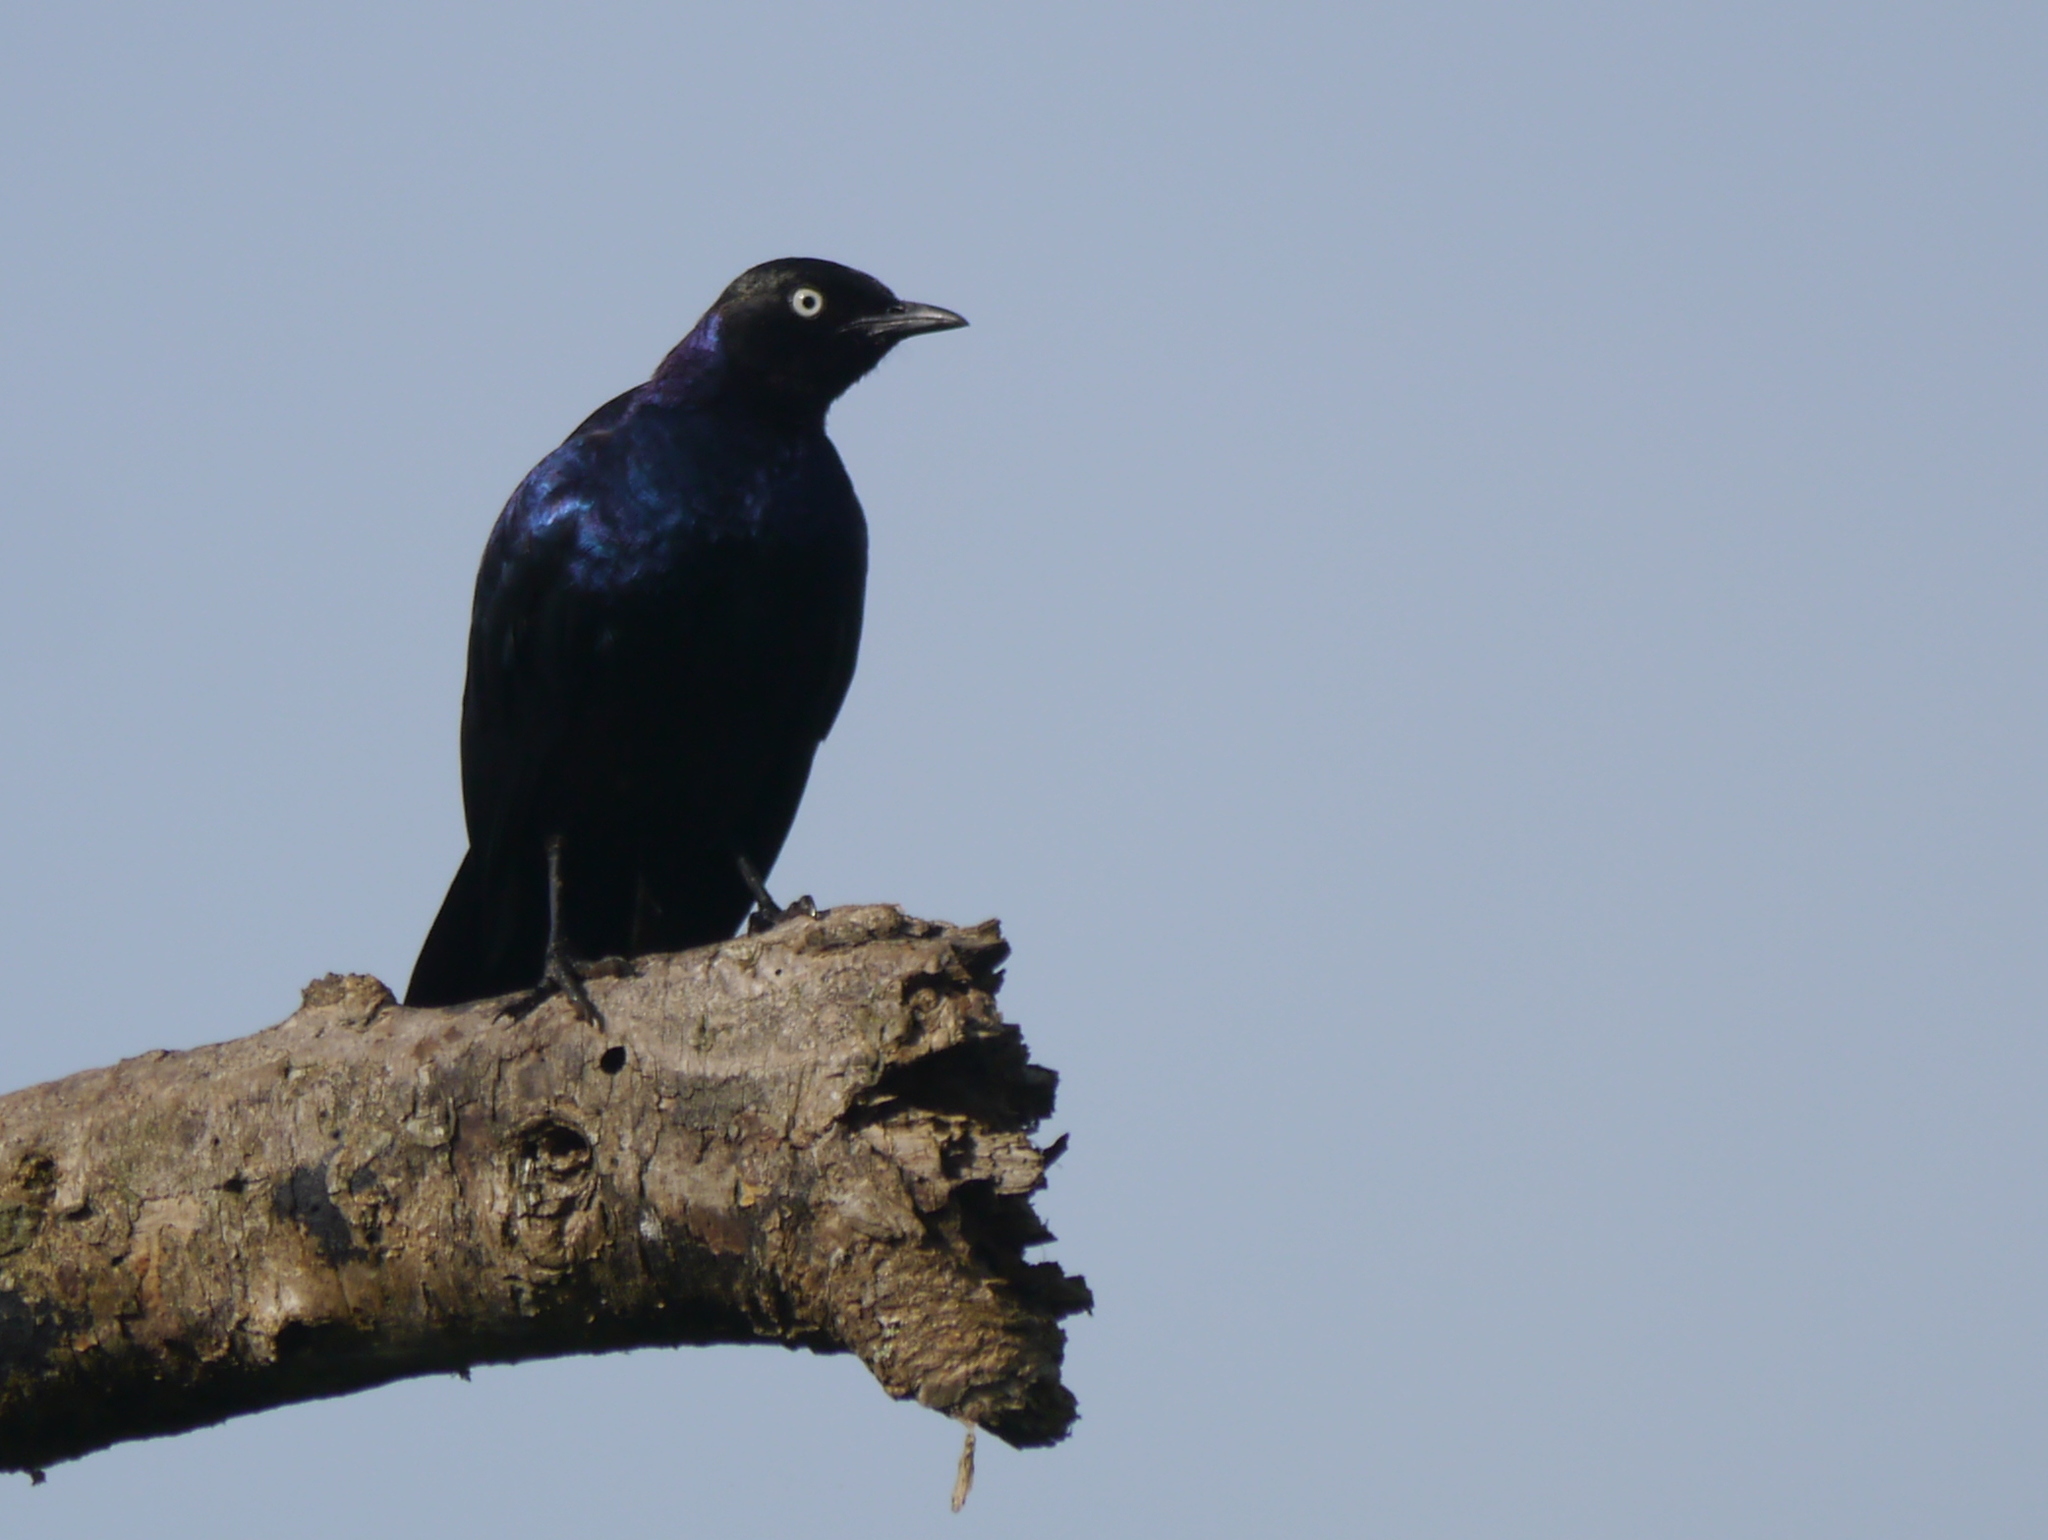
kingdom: Animalia
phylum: Chordata
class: Aves
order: Passeriformes
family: Sturnidae
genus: Lamprotornis
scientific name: Lamprotornis purpuroptera
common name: Rüppell's starling
